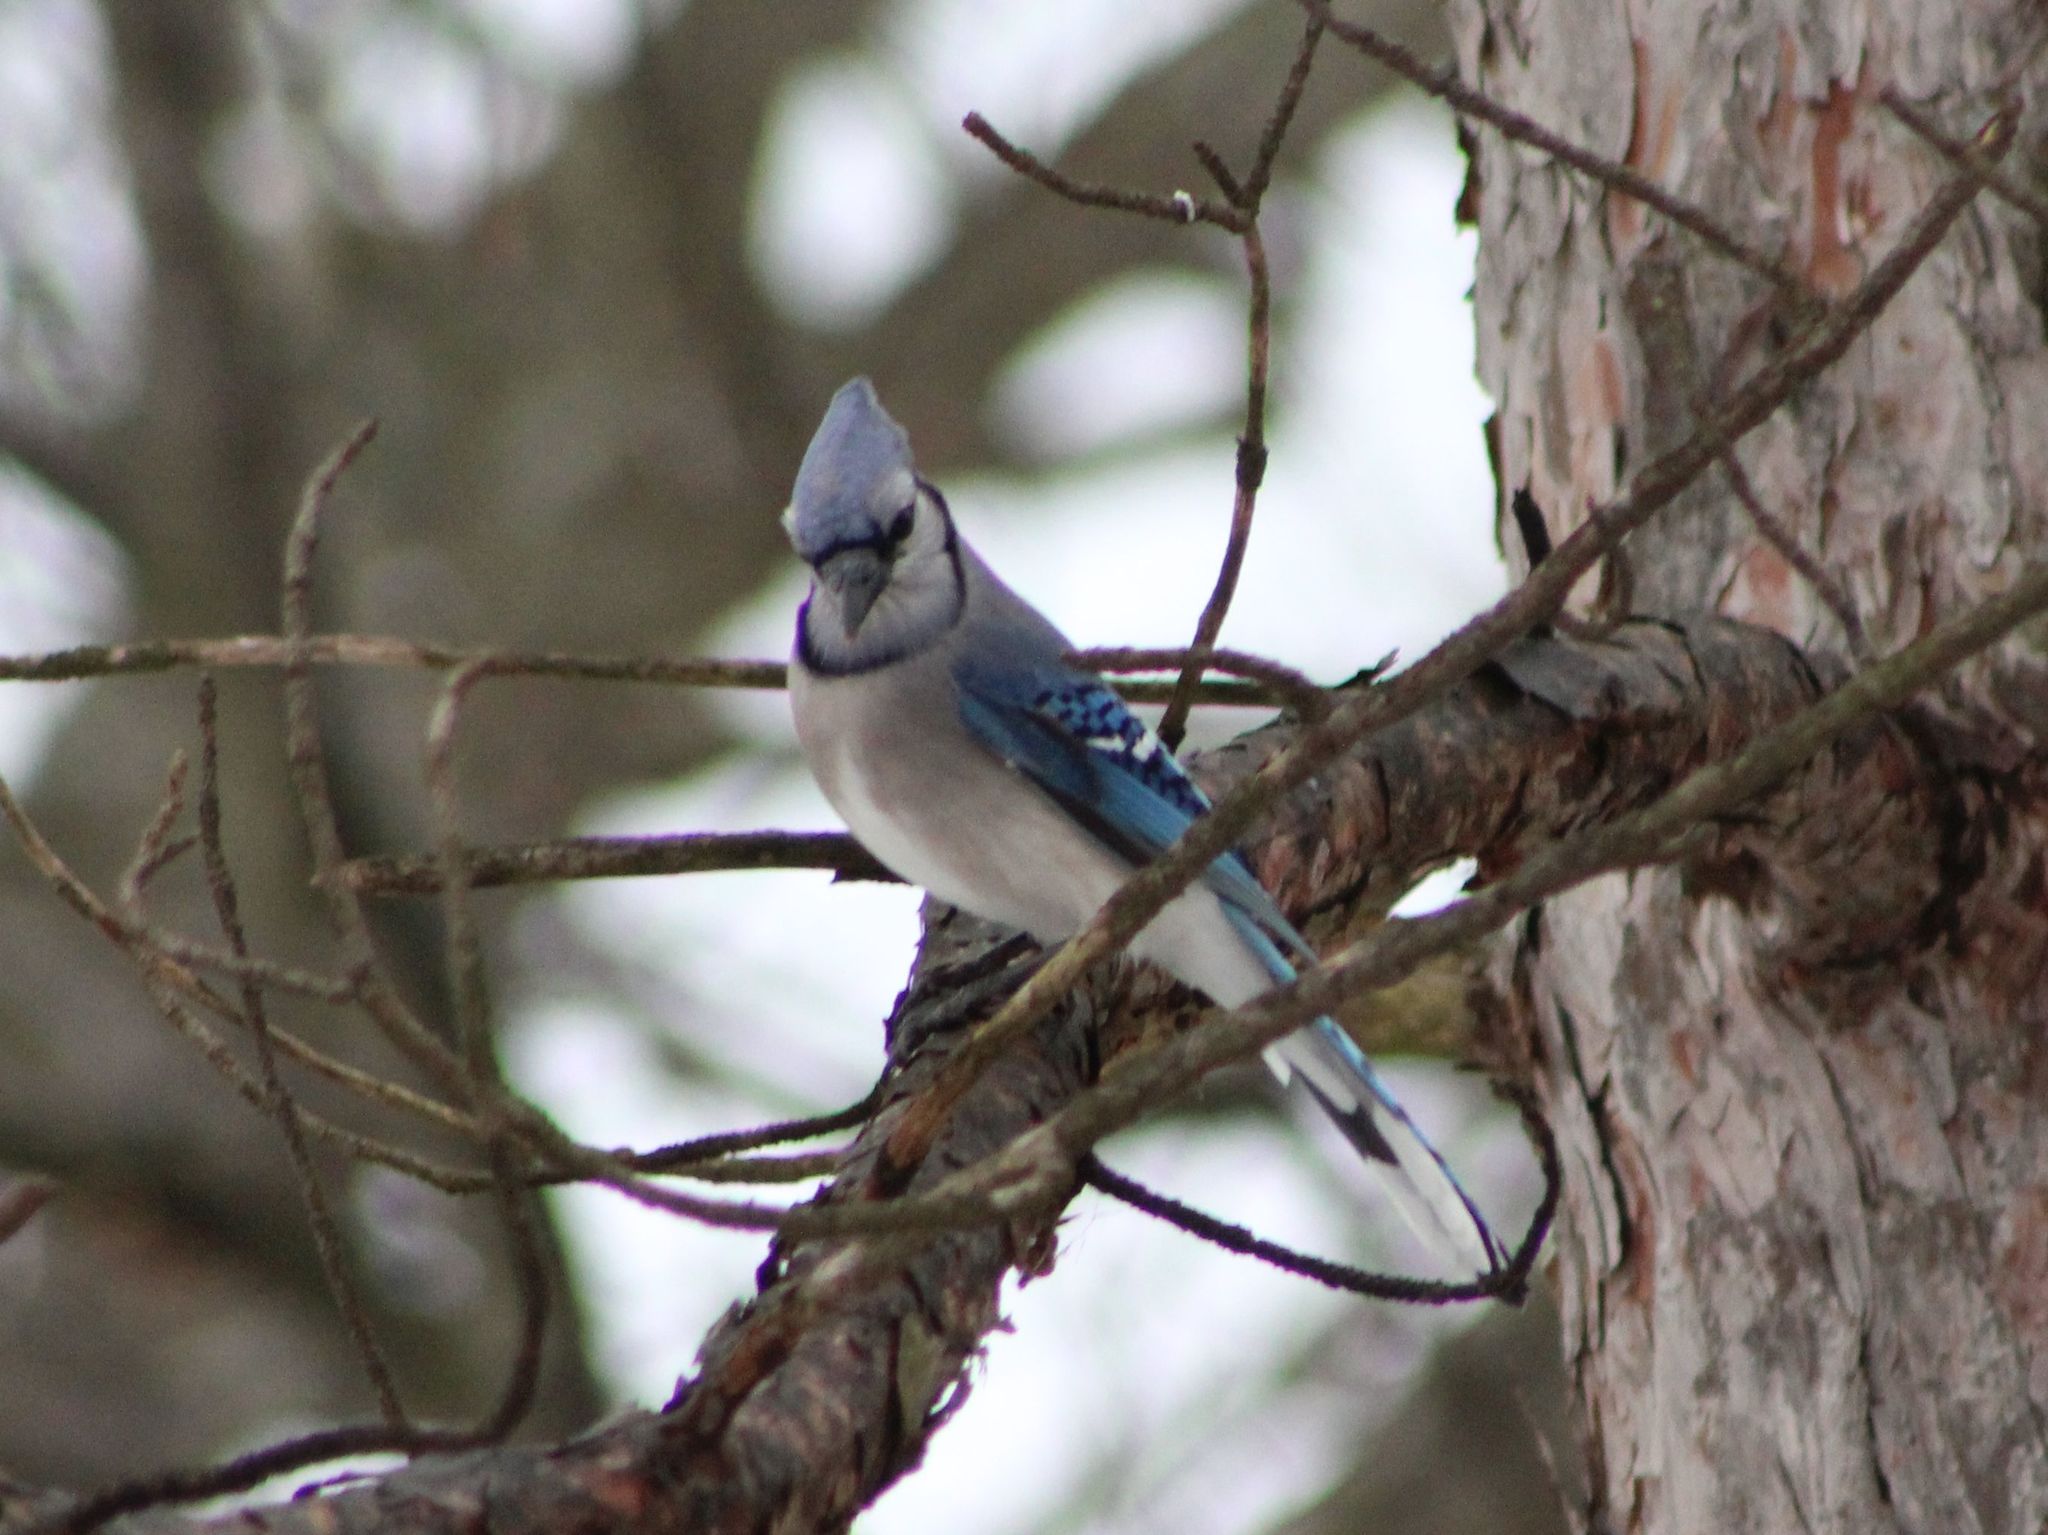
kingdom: Animalia
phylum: Chordata
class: Aves
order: Passeriformes
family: Corvidae
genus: Cyanocitta
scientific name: Cyanocitta cristata
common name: Blue jay
